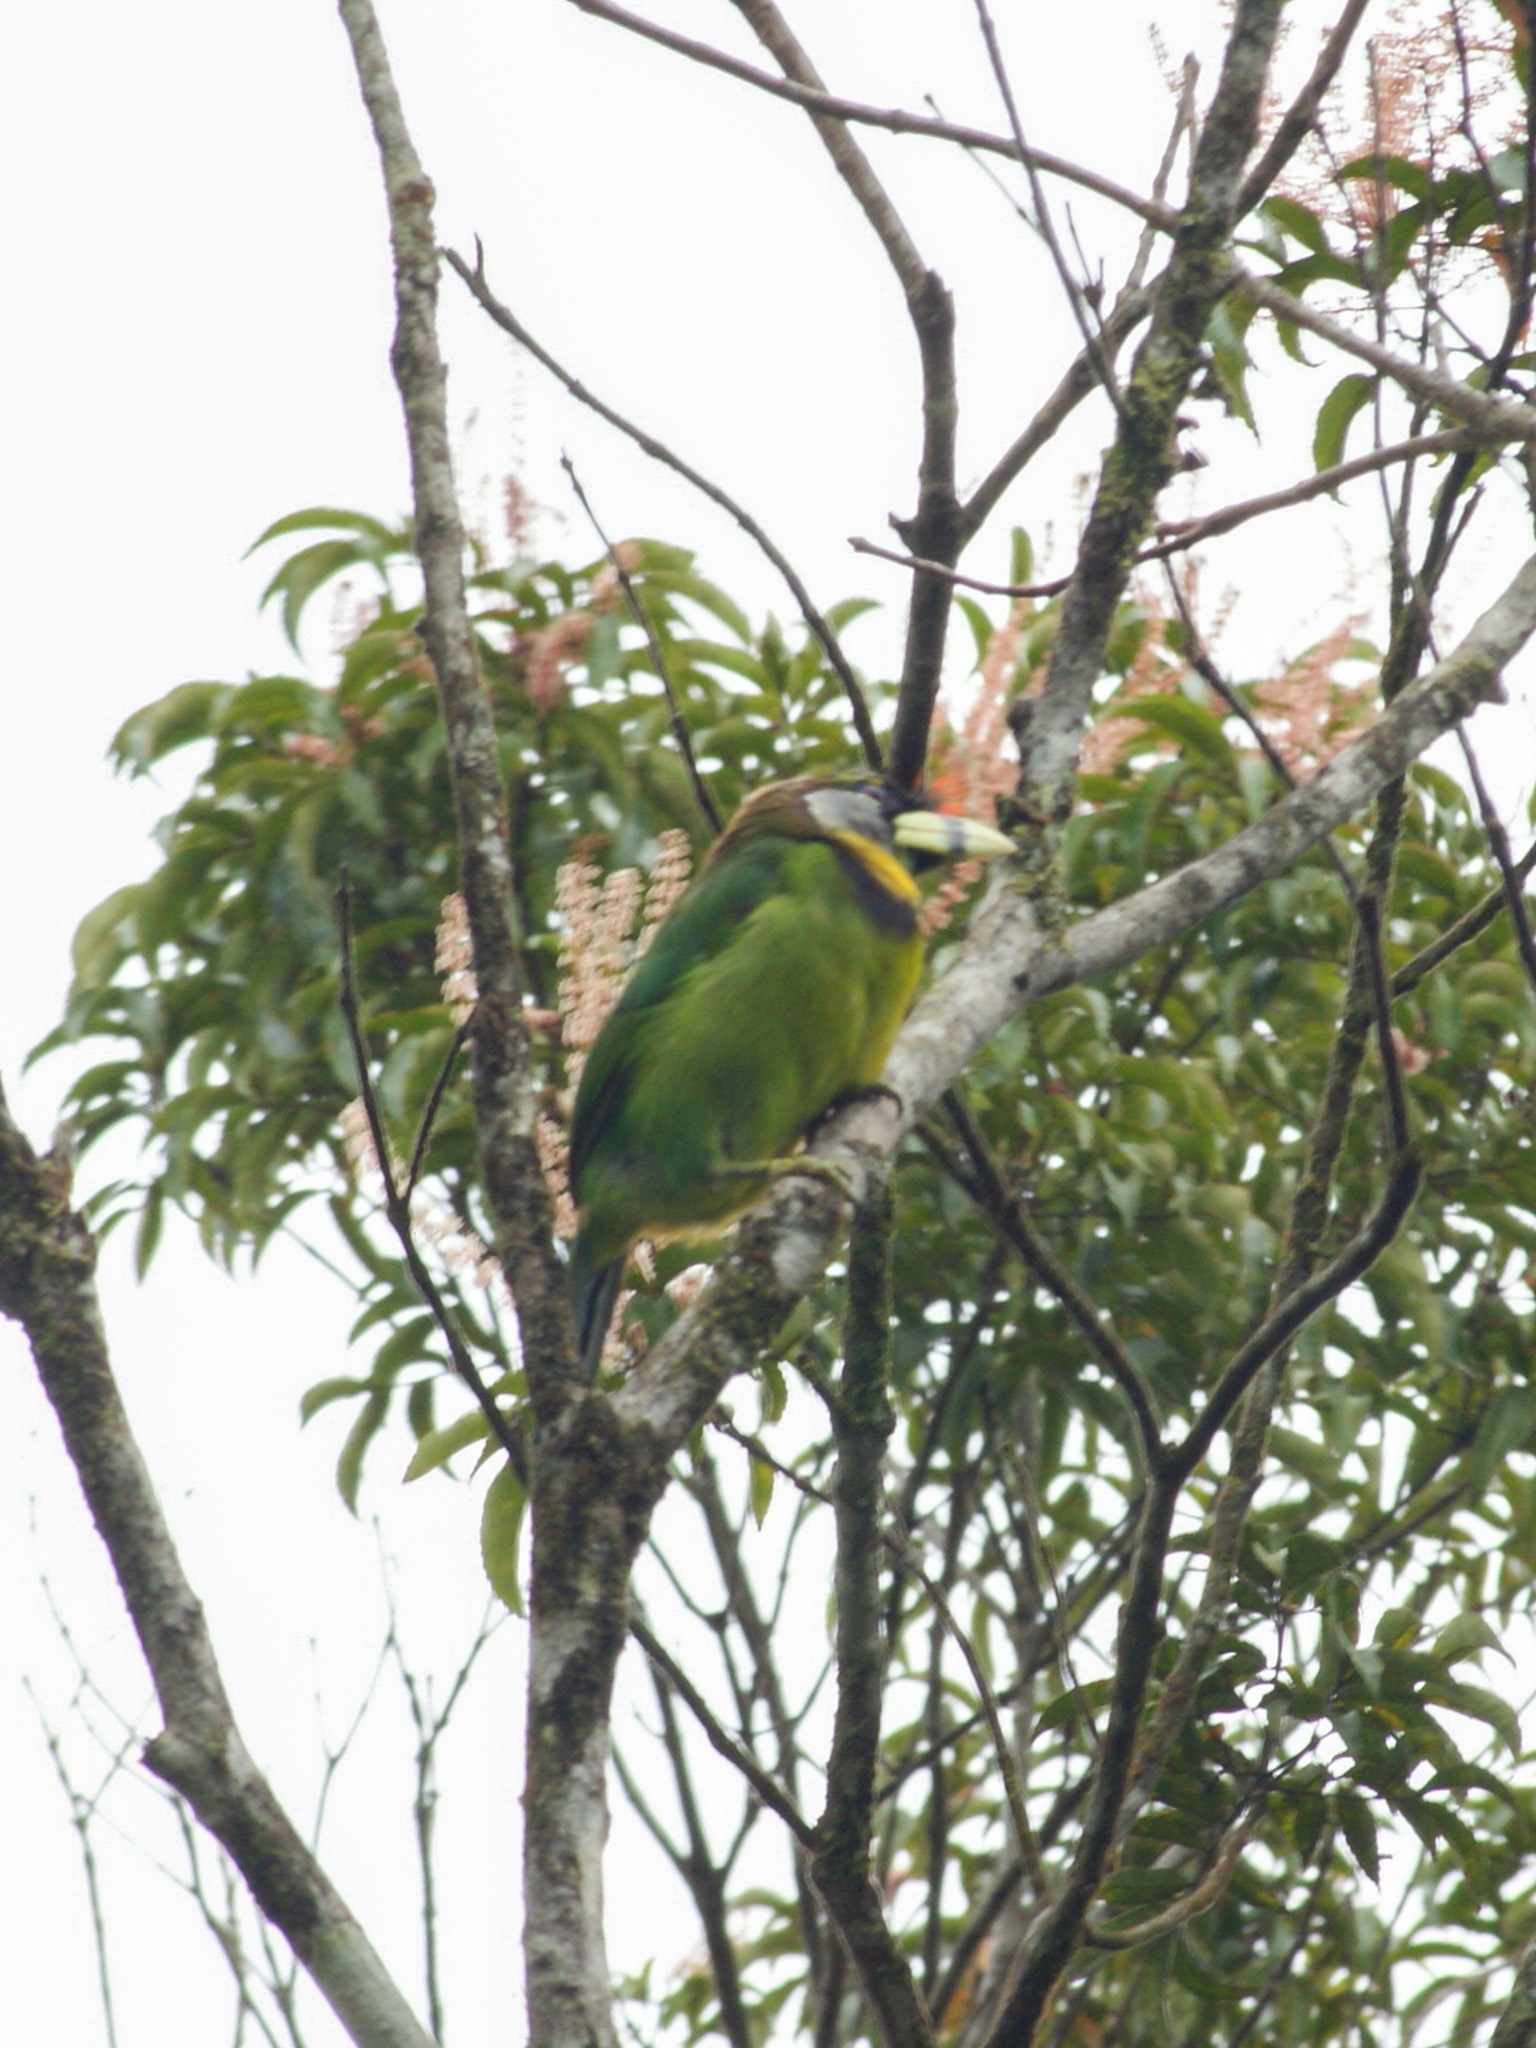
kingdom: Animalia
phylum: Chordata
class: Aves
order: Piciformes
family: Megalaimidae
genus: Psilopogon
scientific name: Psilopogon pyrolophus
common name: Fire-tufted barbet
